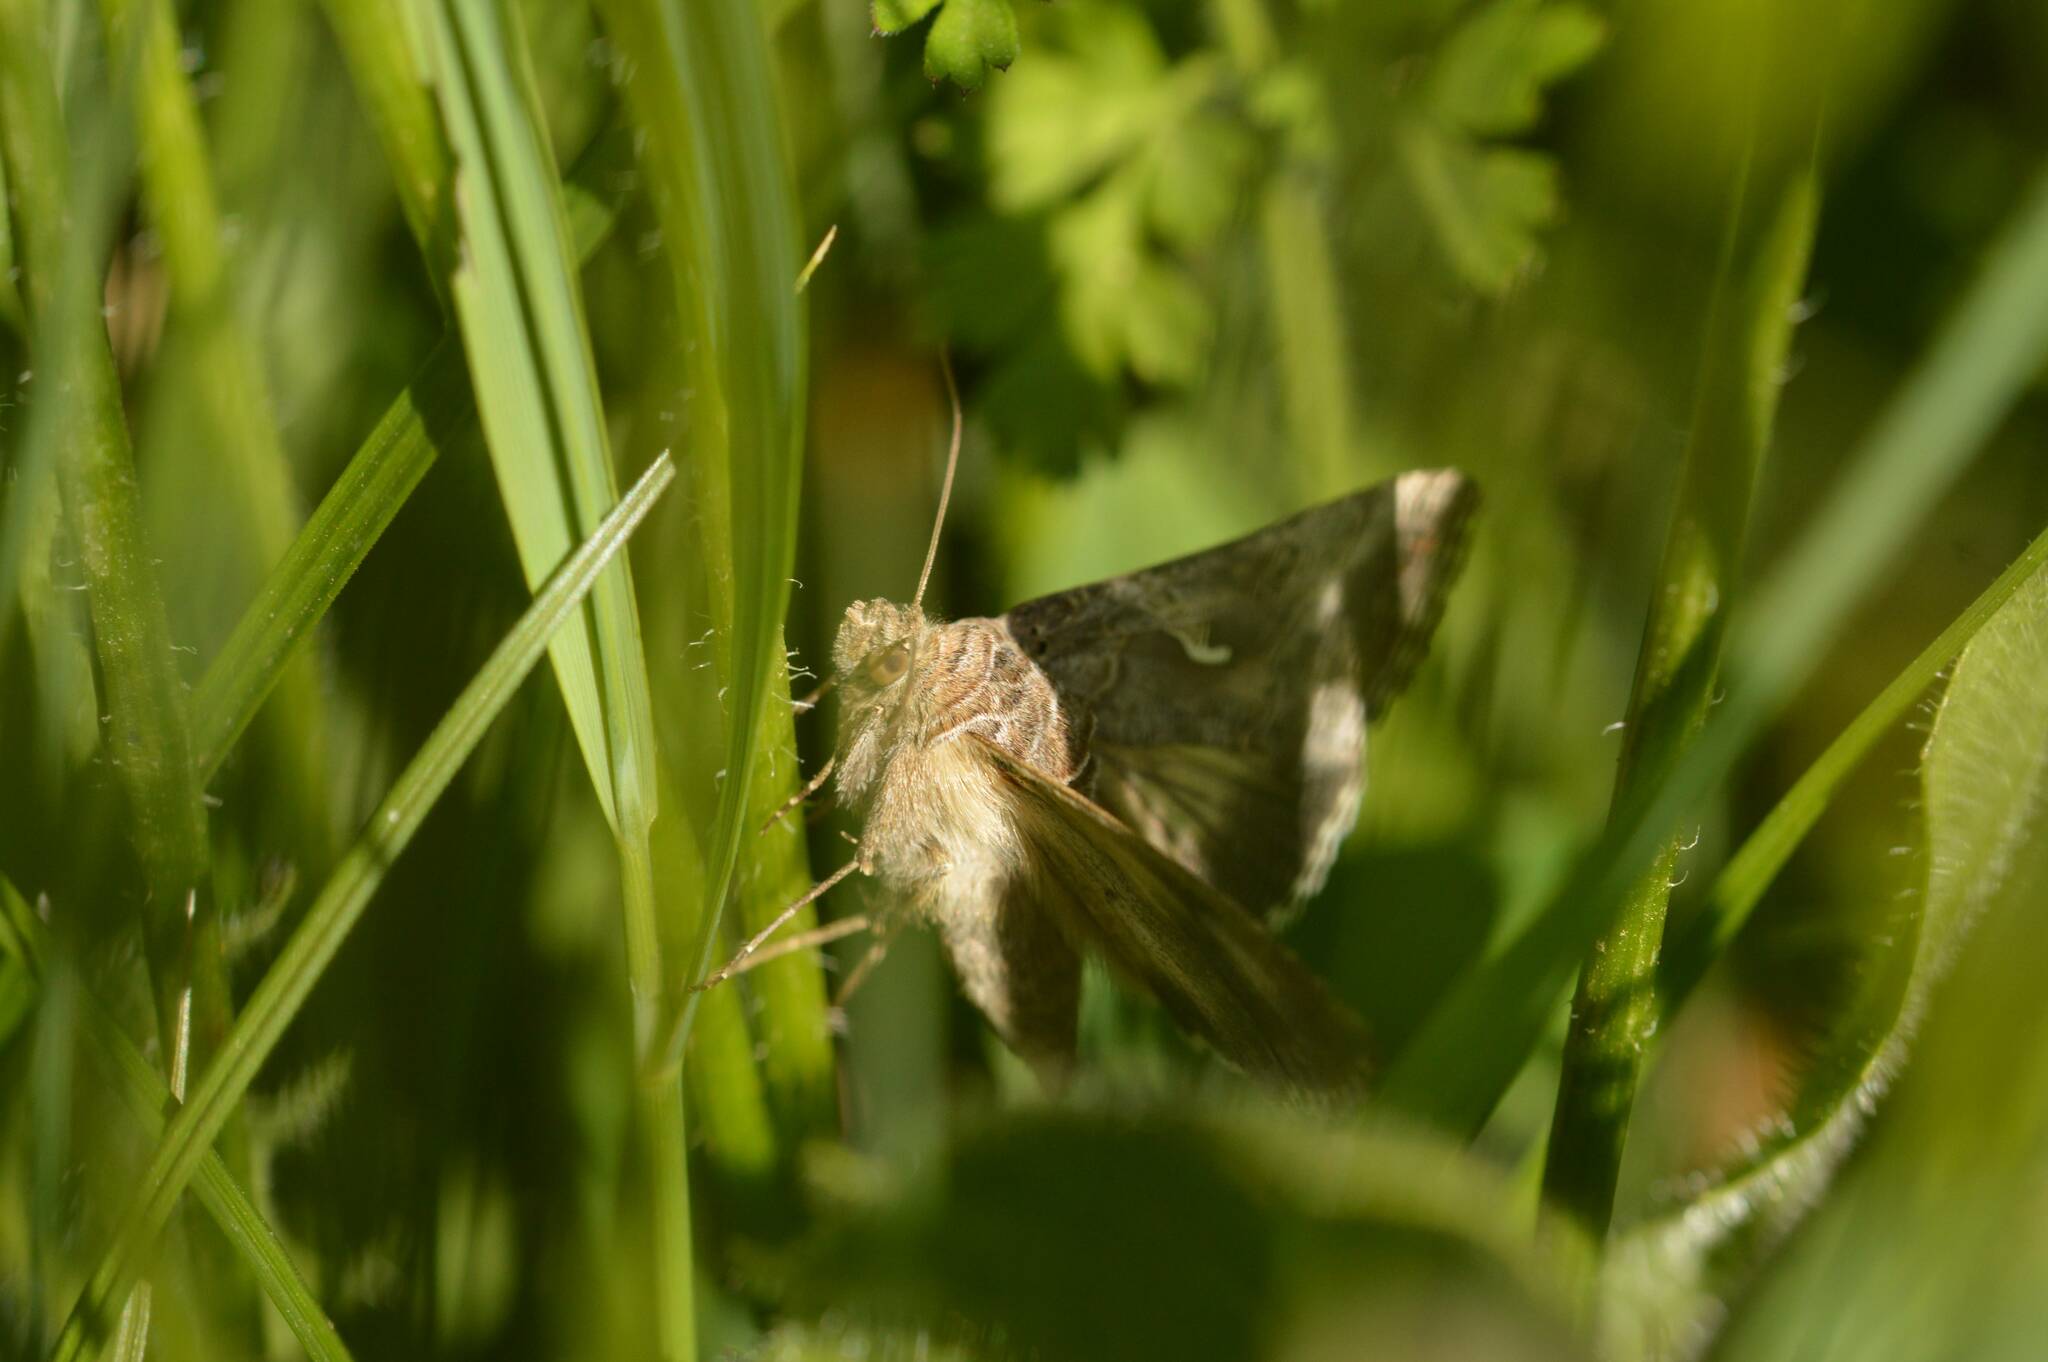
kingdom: Animalia
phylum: Arthropoda
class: Insecta
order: Lepidoptera
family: Noctuidae
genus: Autographa
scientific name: Autographa gamma
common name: Silver y
